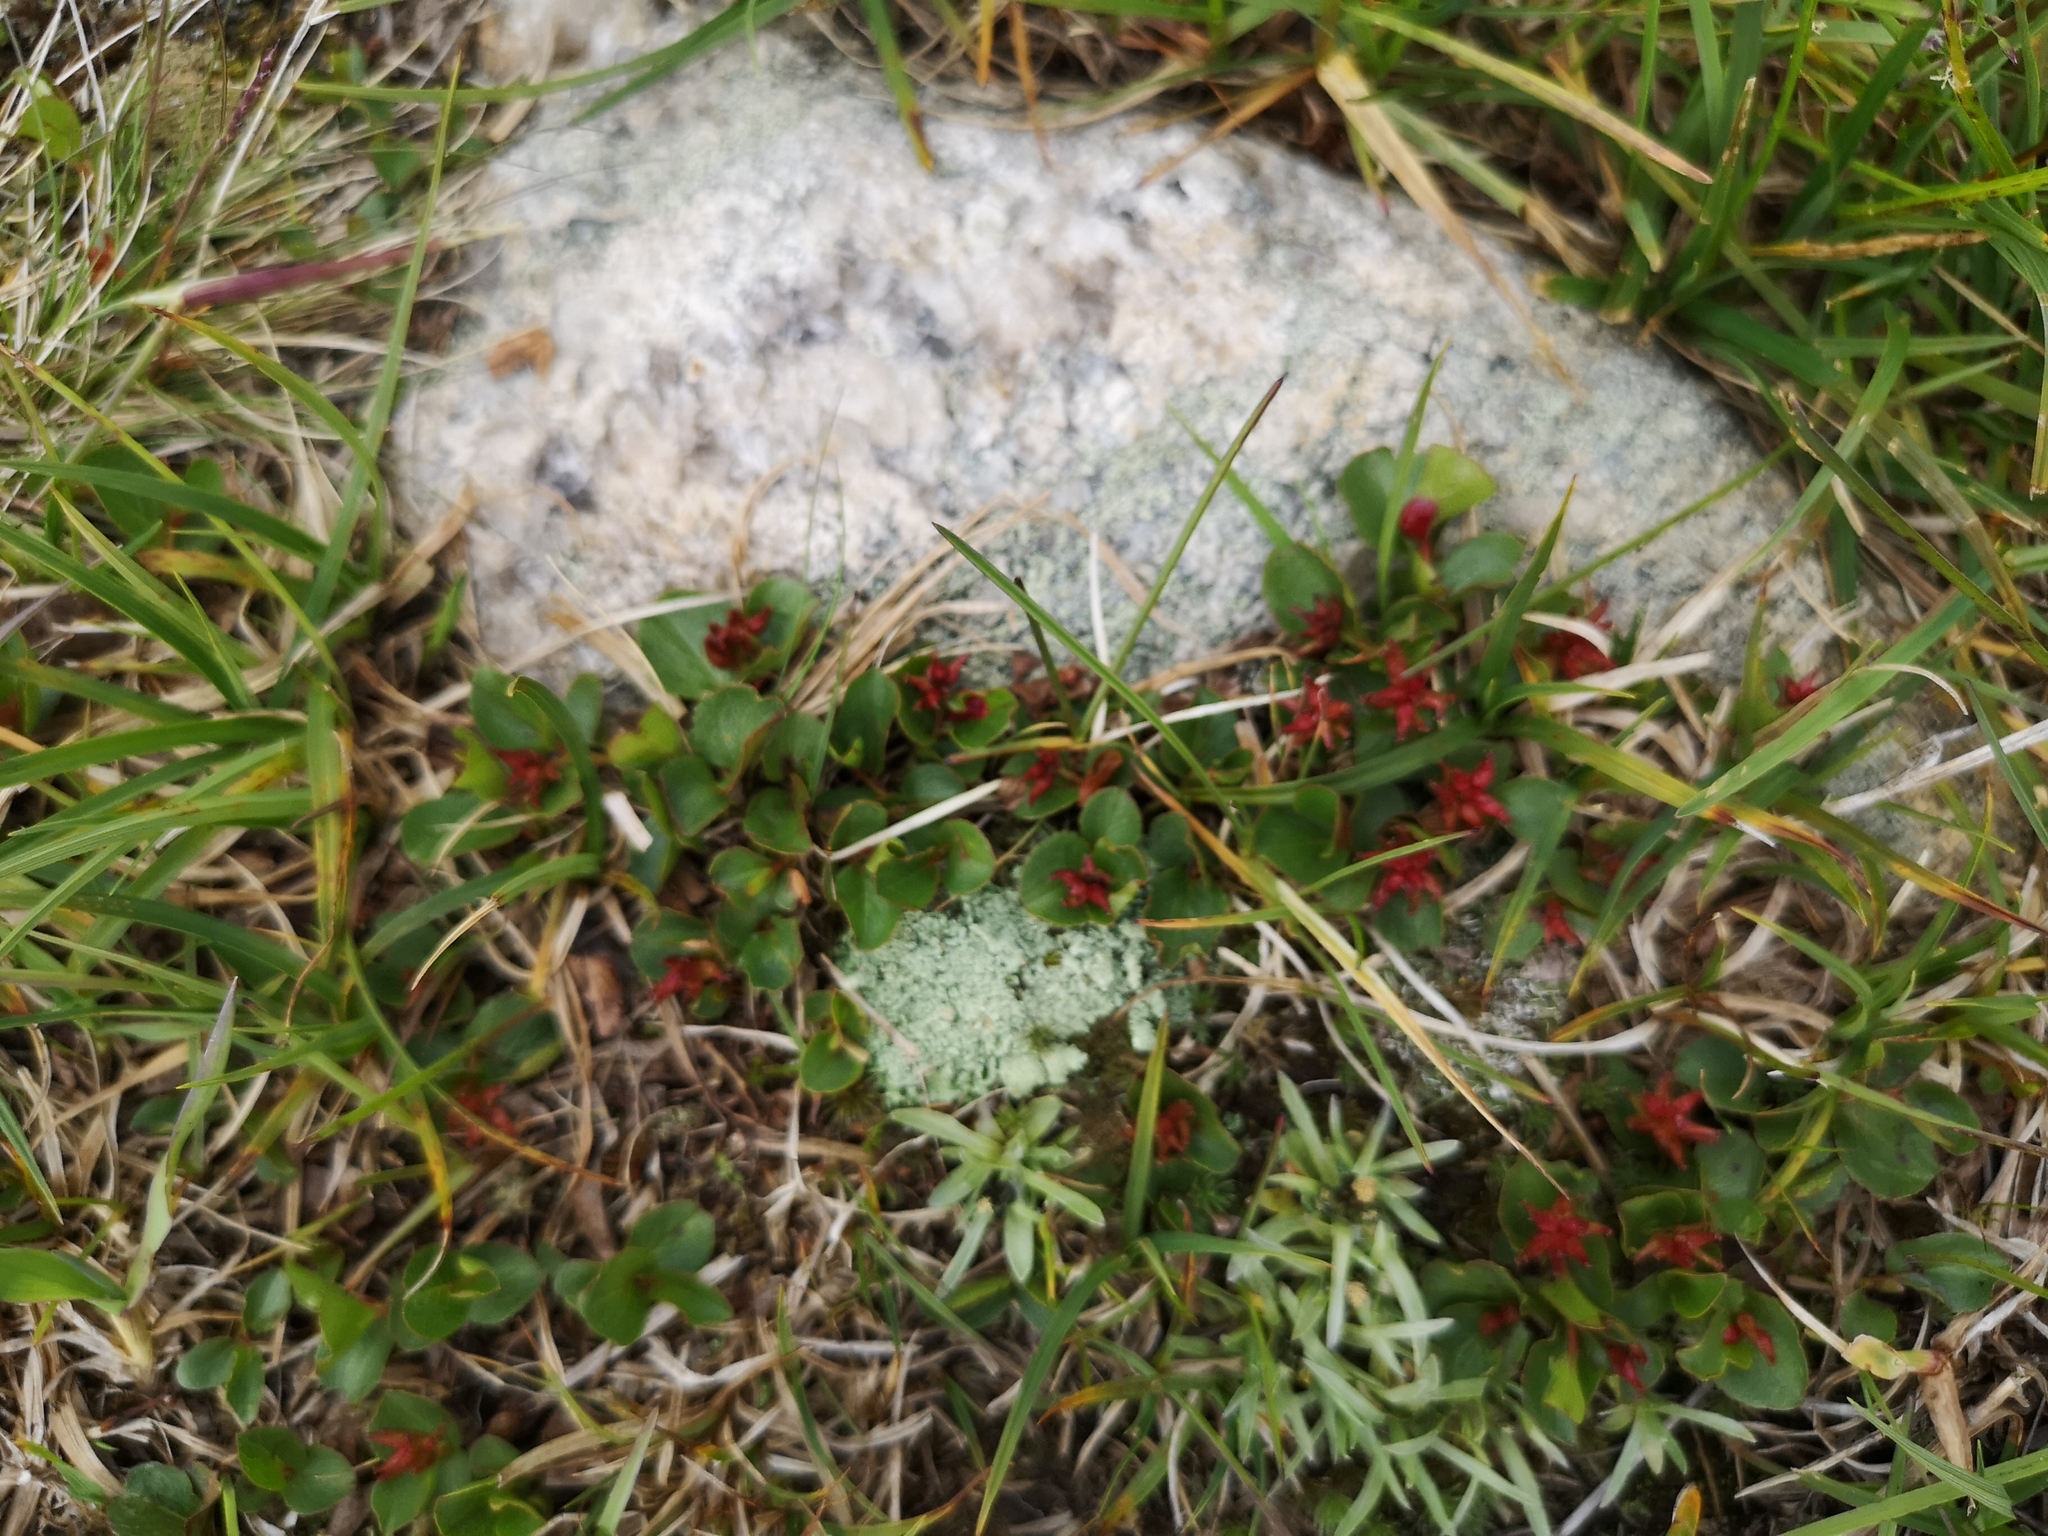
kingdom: Plantae
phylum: Tracheophyta
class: Magnoliopsida
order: Malpighiales
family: Salicaceae
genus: Salix
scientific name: Salix herbacea
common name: Dwarf willow
